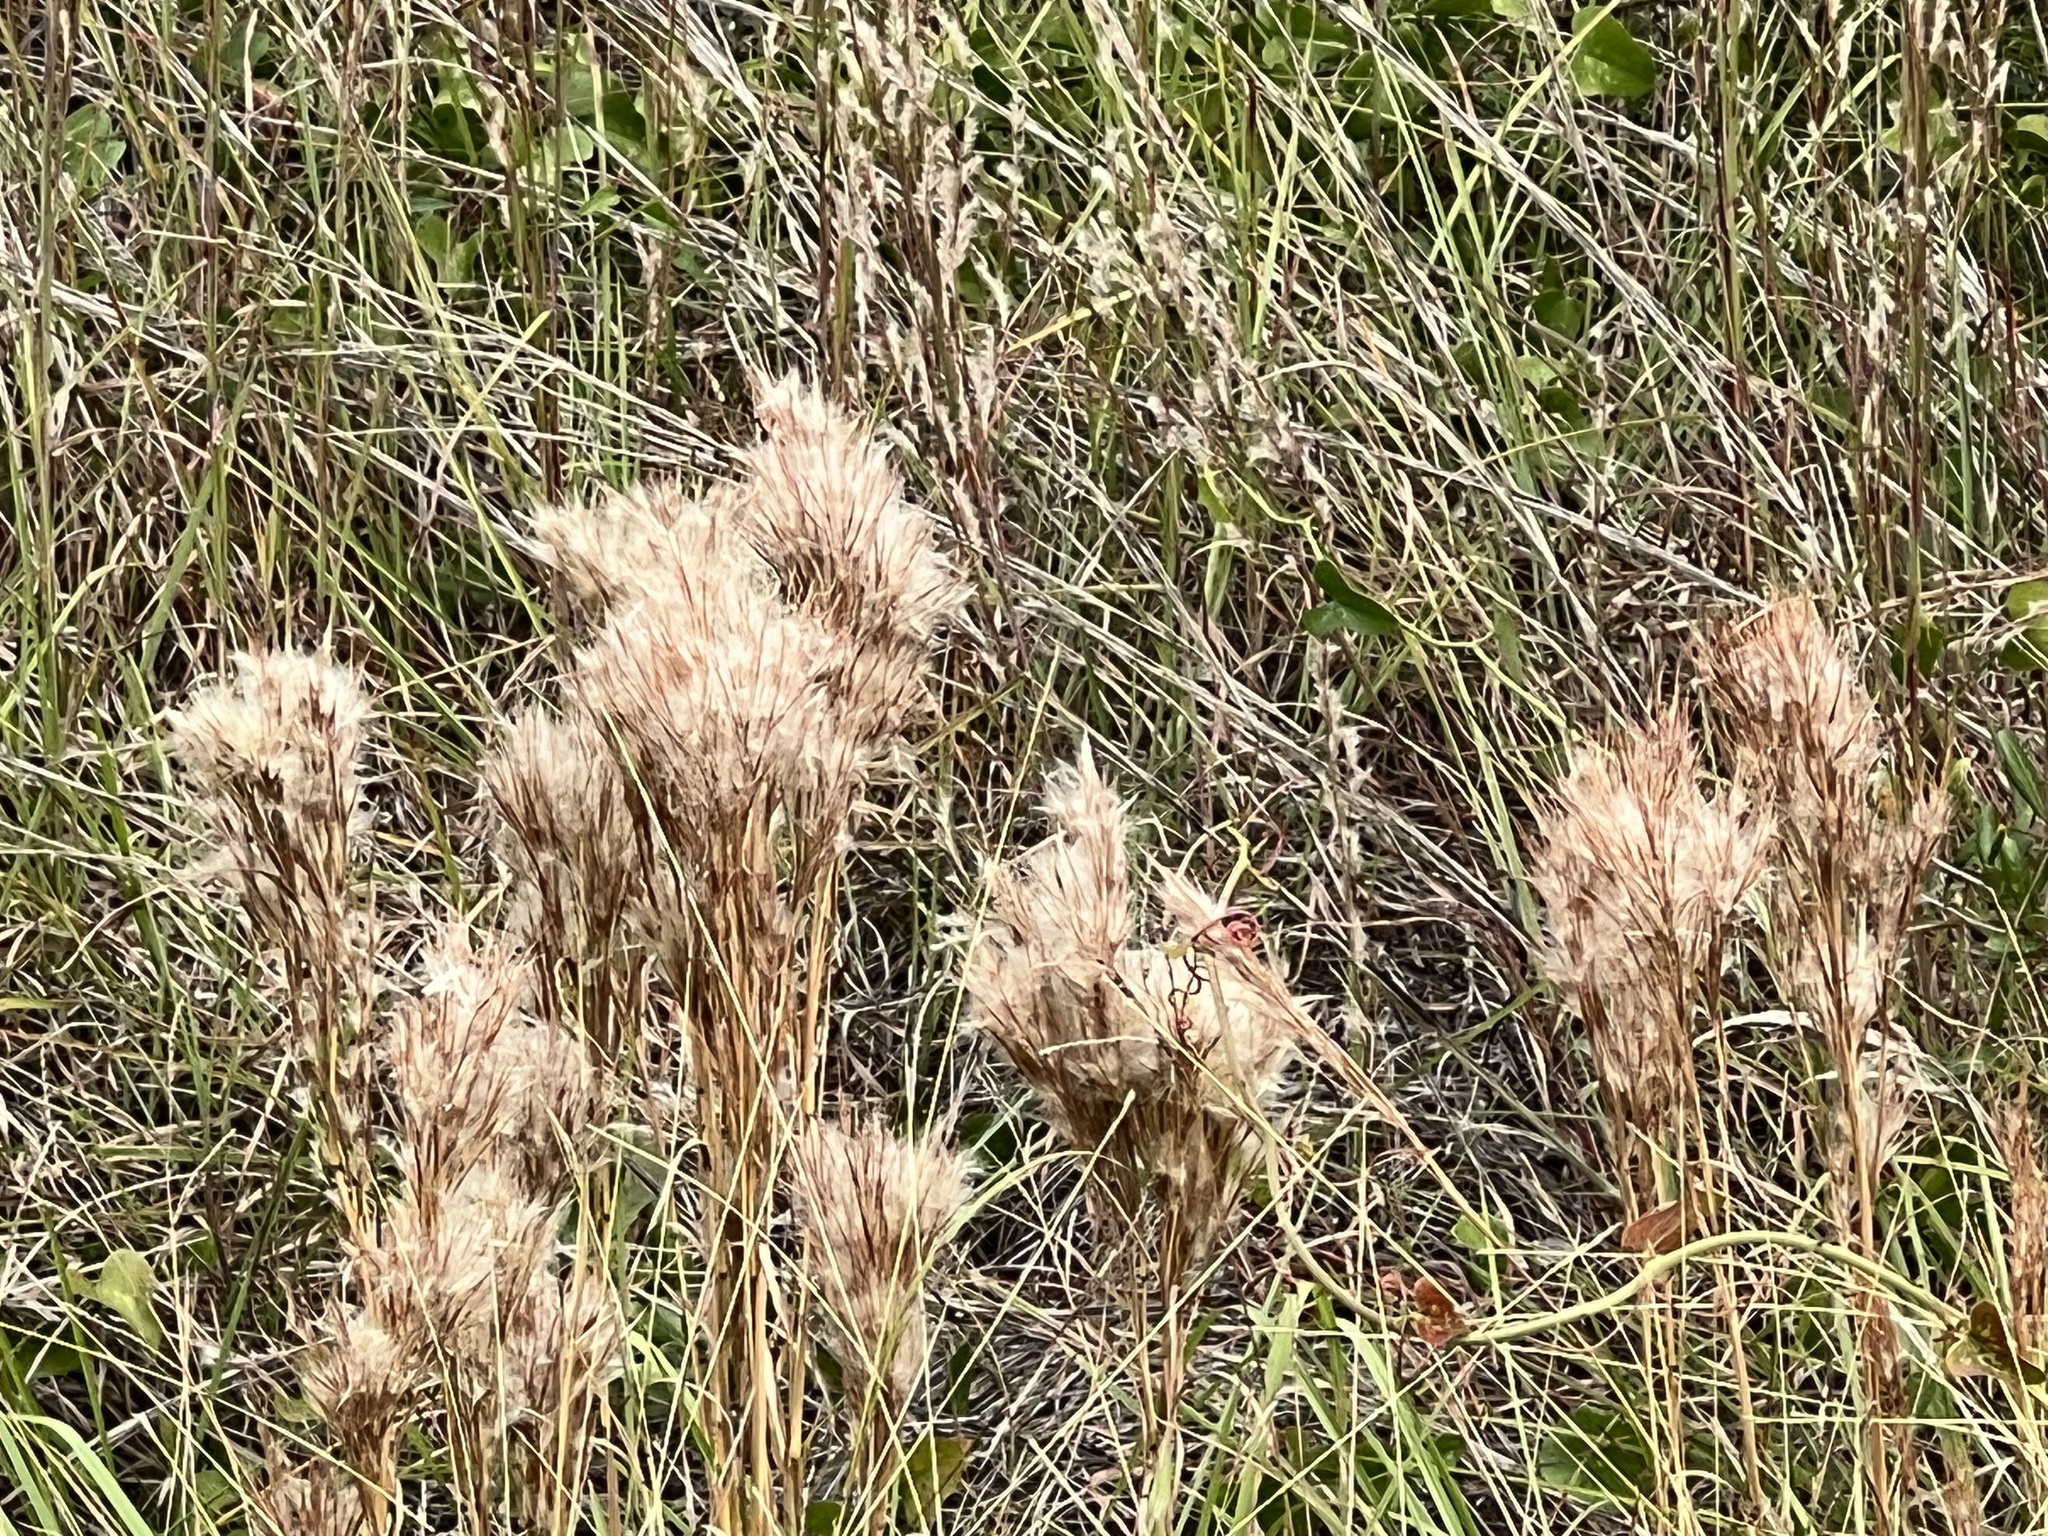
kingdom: Plantae
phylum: Tracheophyta
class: Liliopsida
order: Poales
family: Poaceae
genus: Andropogon
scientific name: Andropogon tenuispatheus
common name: Bushy bluestem
